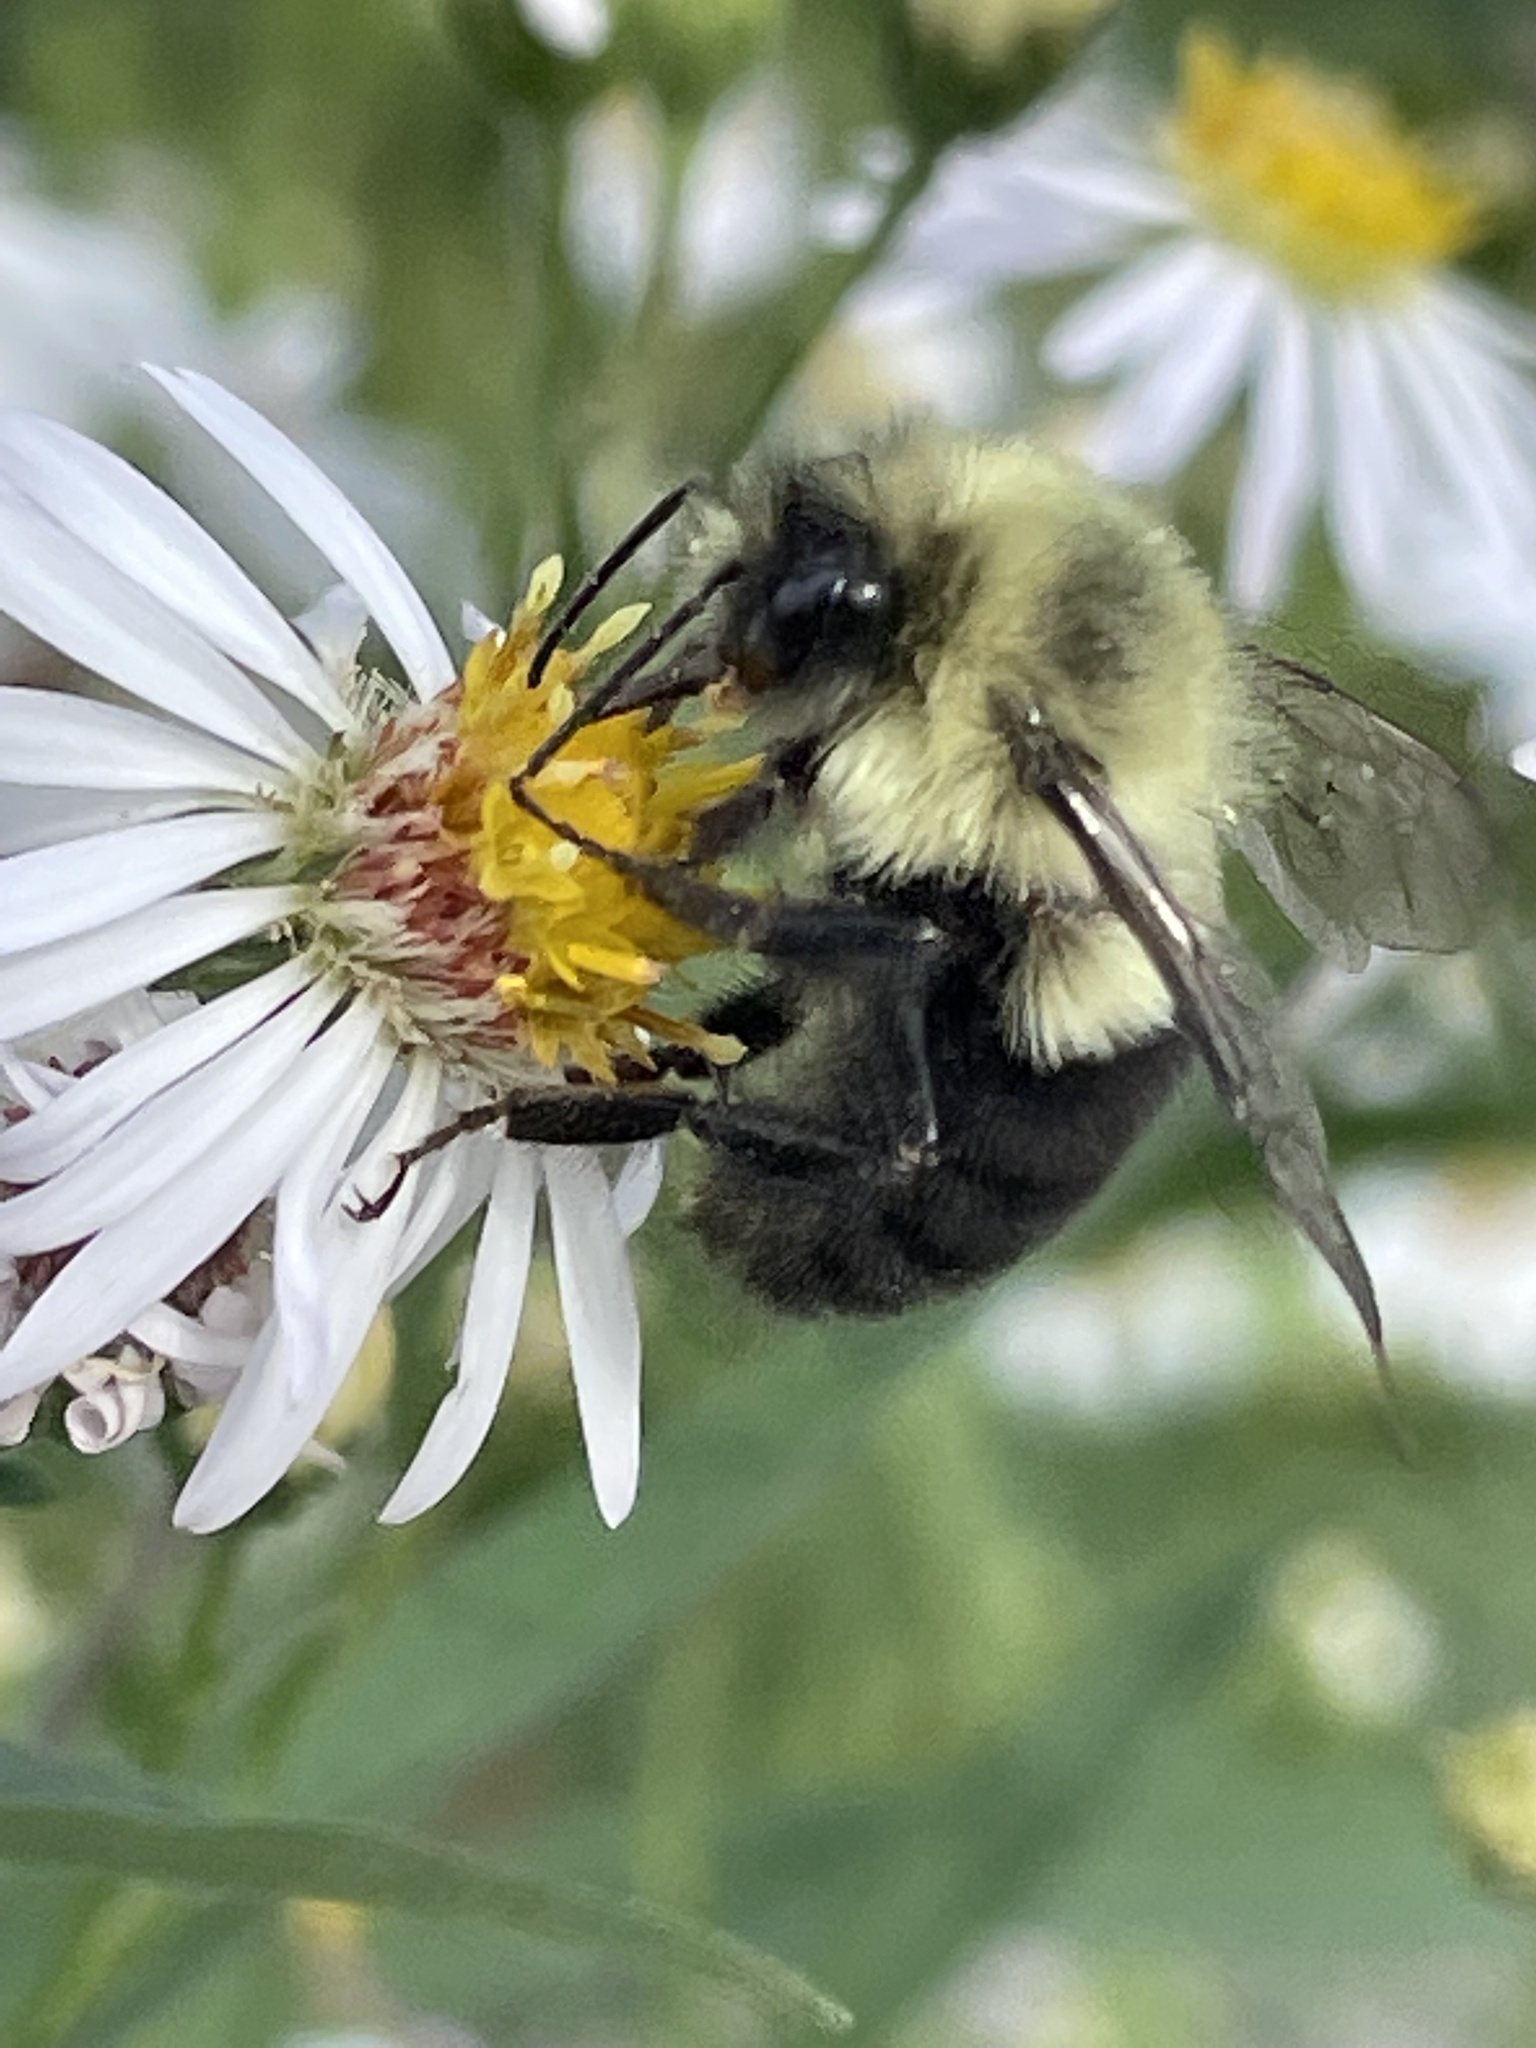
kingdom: Animalia
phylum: Arthropoda
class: Insecta
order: Hymenoptera
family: Apidae
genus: Bombus
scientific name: Bombus impatiens
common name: Common eastern bumble bee
